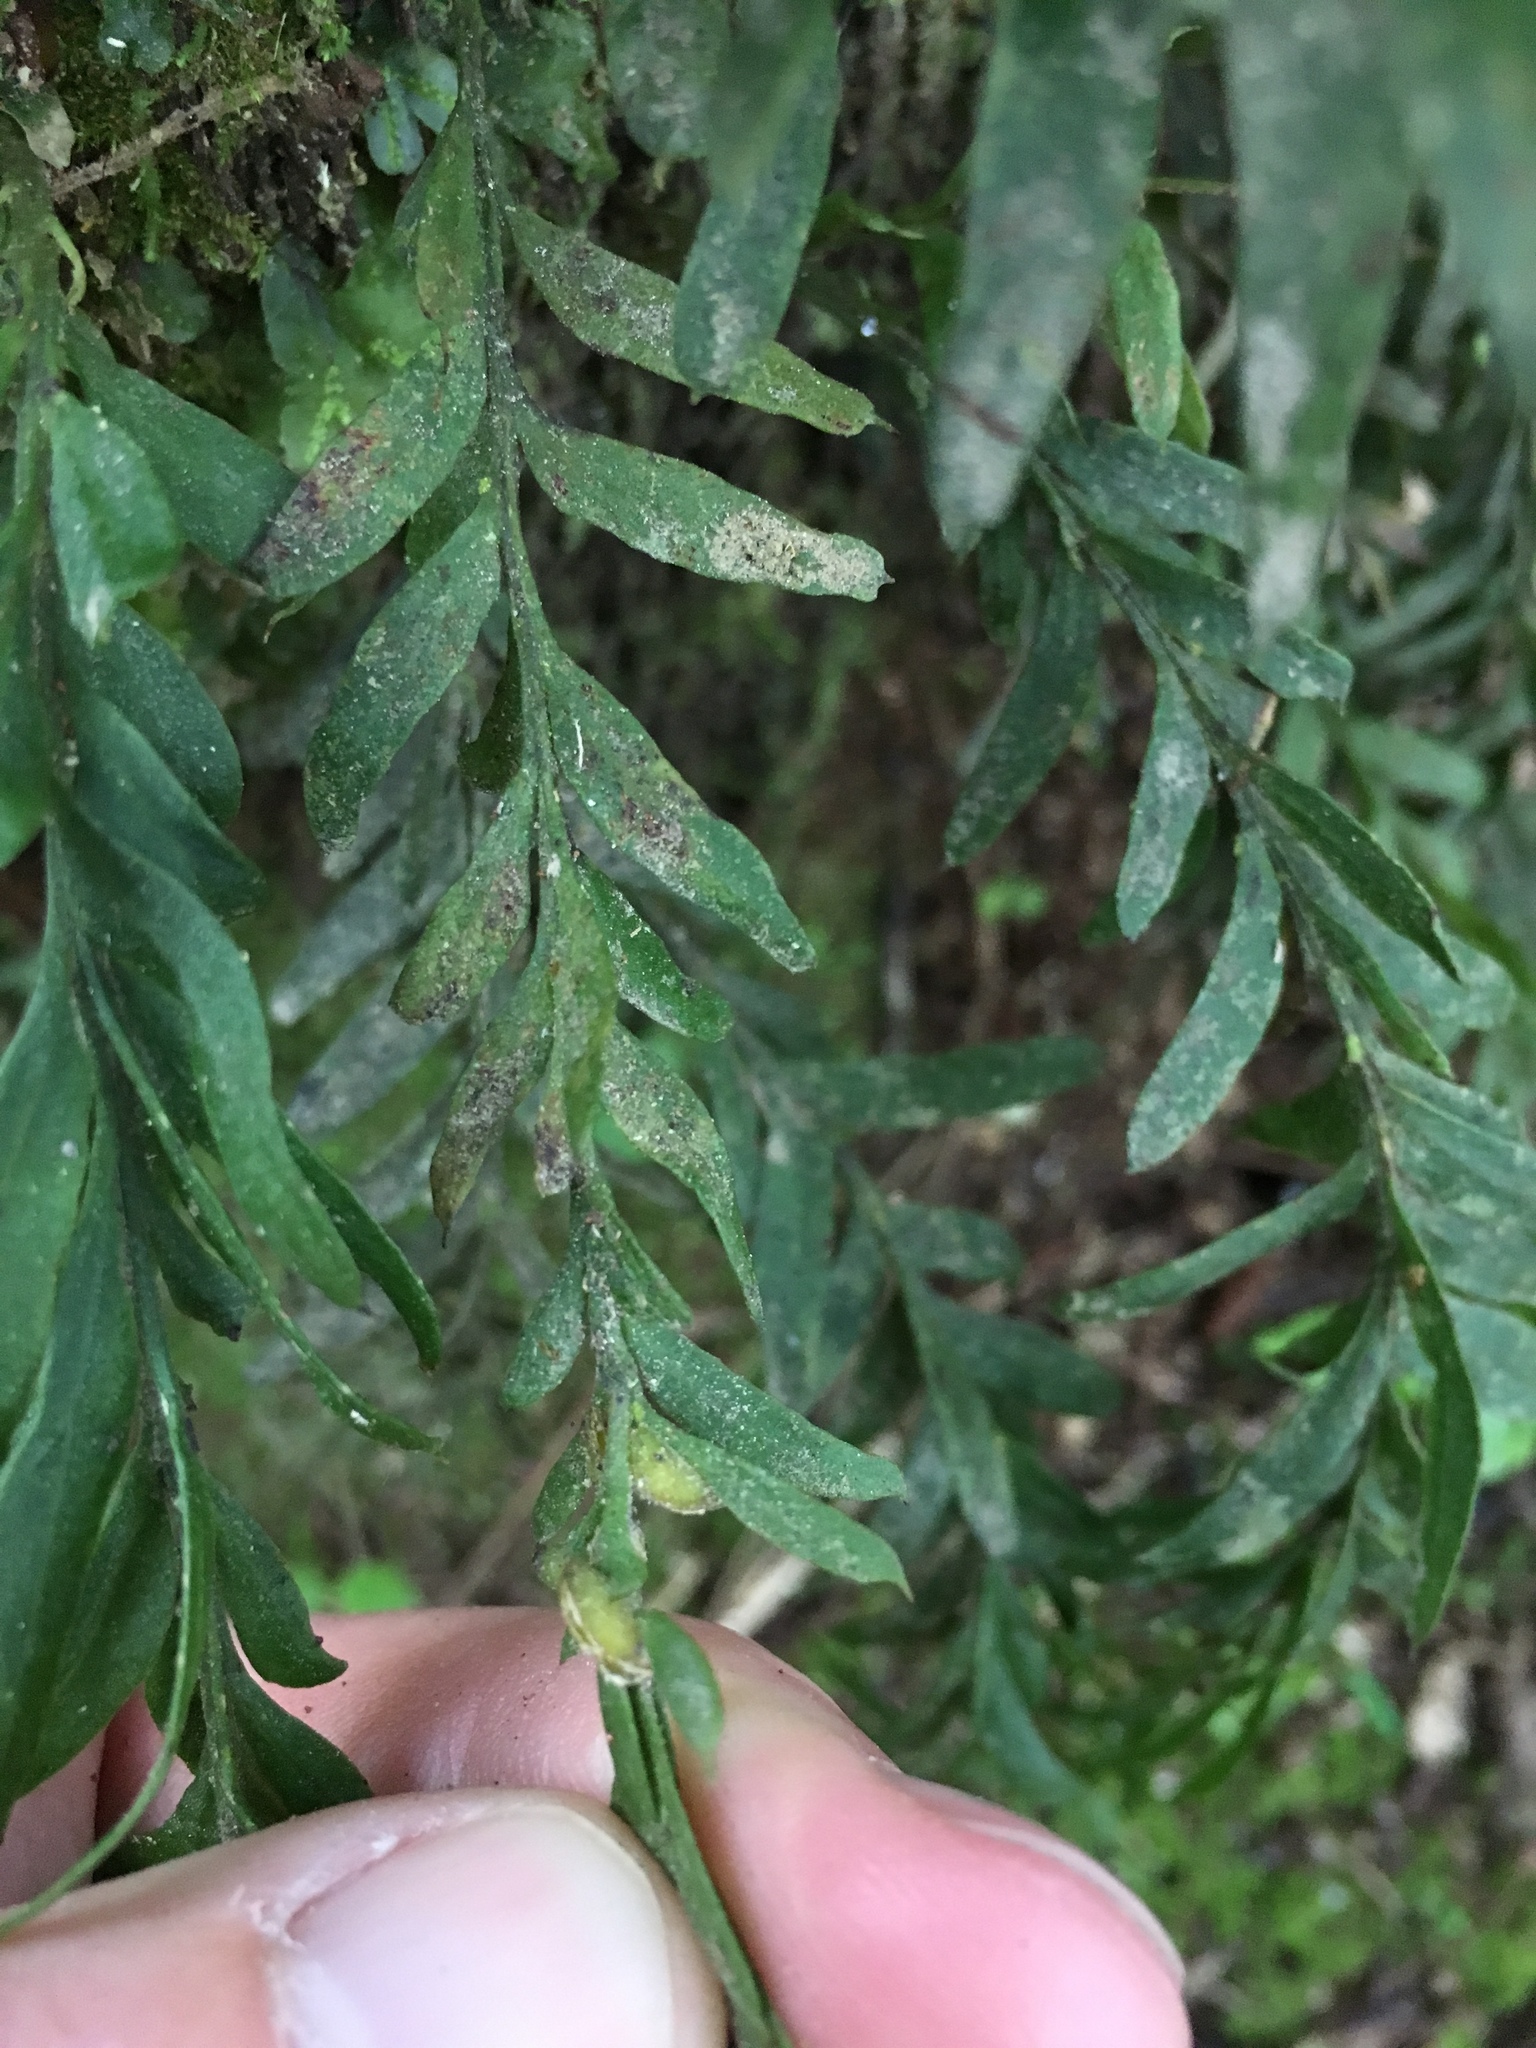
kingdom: Plantae
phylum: Tracheophyta
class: Polypodiopsida
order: Psilotales
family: Psilotaceae
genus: Tmesipteris
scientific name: Tmesipteris elongata
